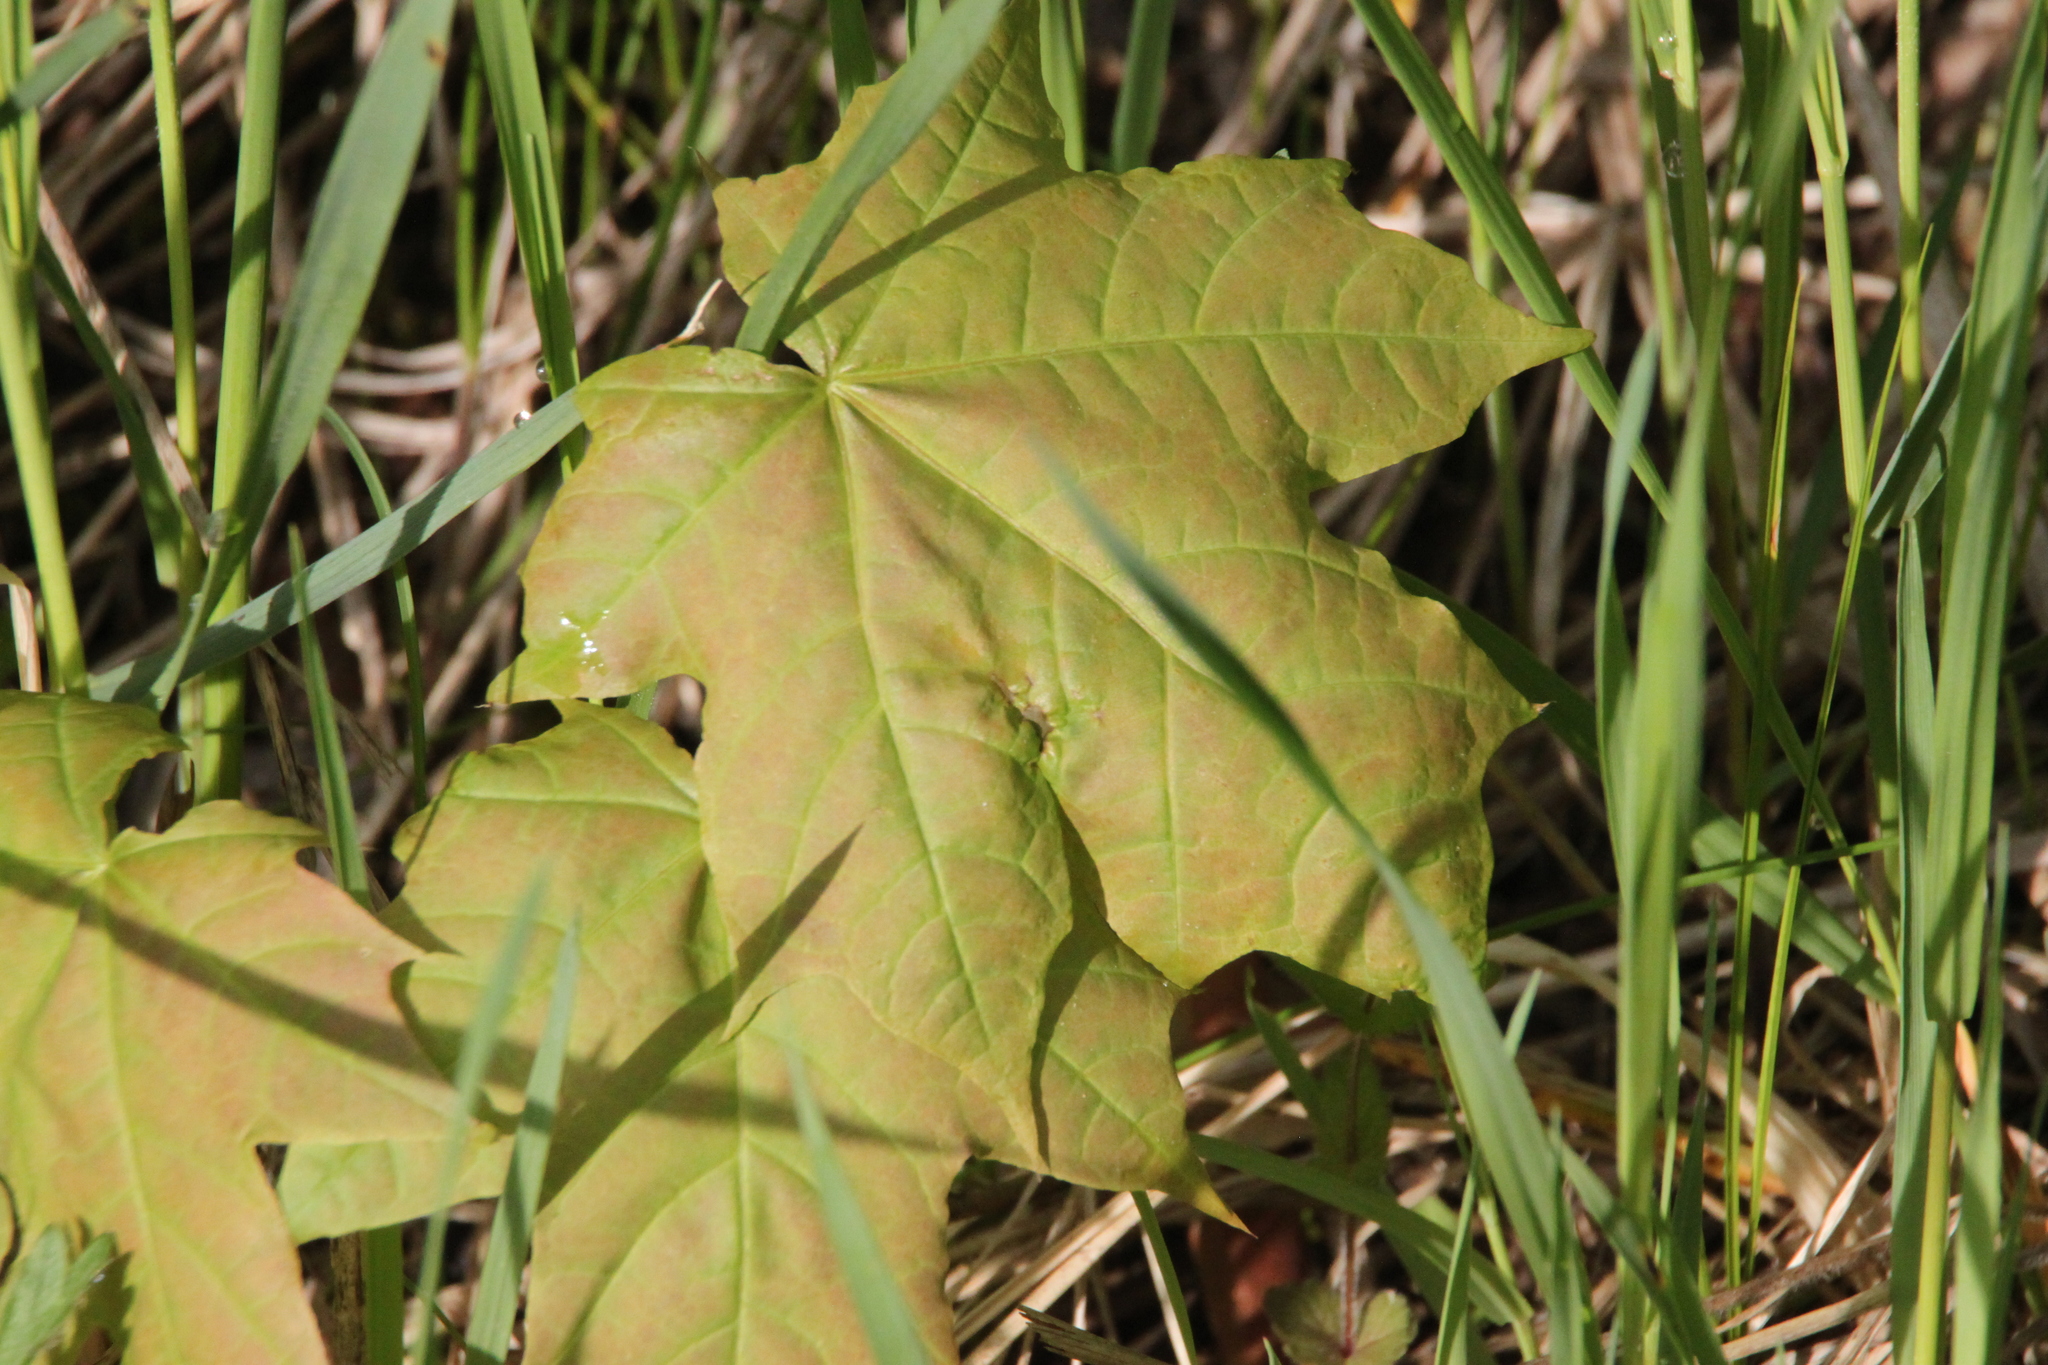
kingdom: Plantae
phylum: Tracheophyta
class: Magnoliopsida
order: Sapindales
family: Sapindaceae
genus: Acer
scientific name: Acer platanoides
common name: Norway maple
